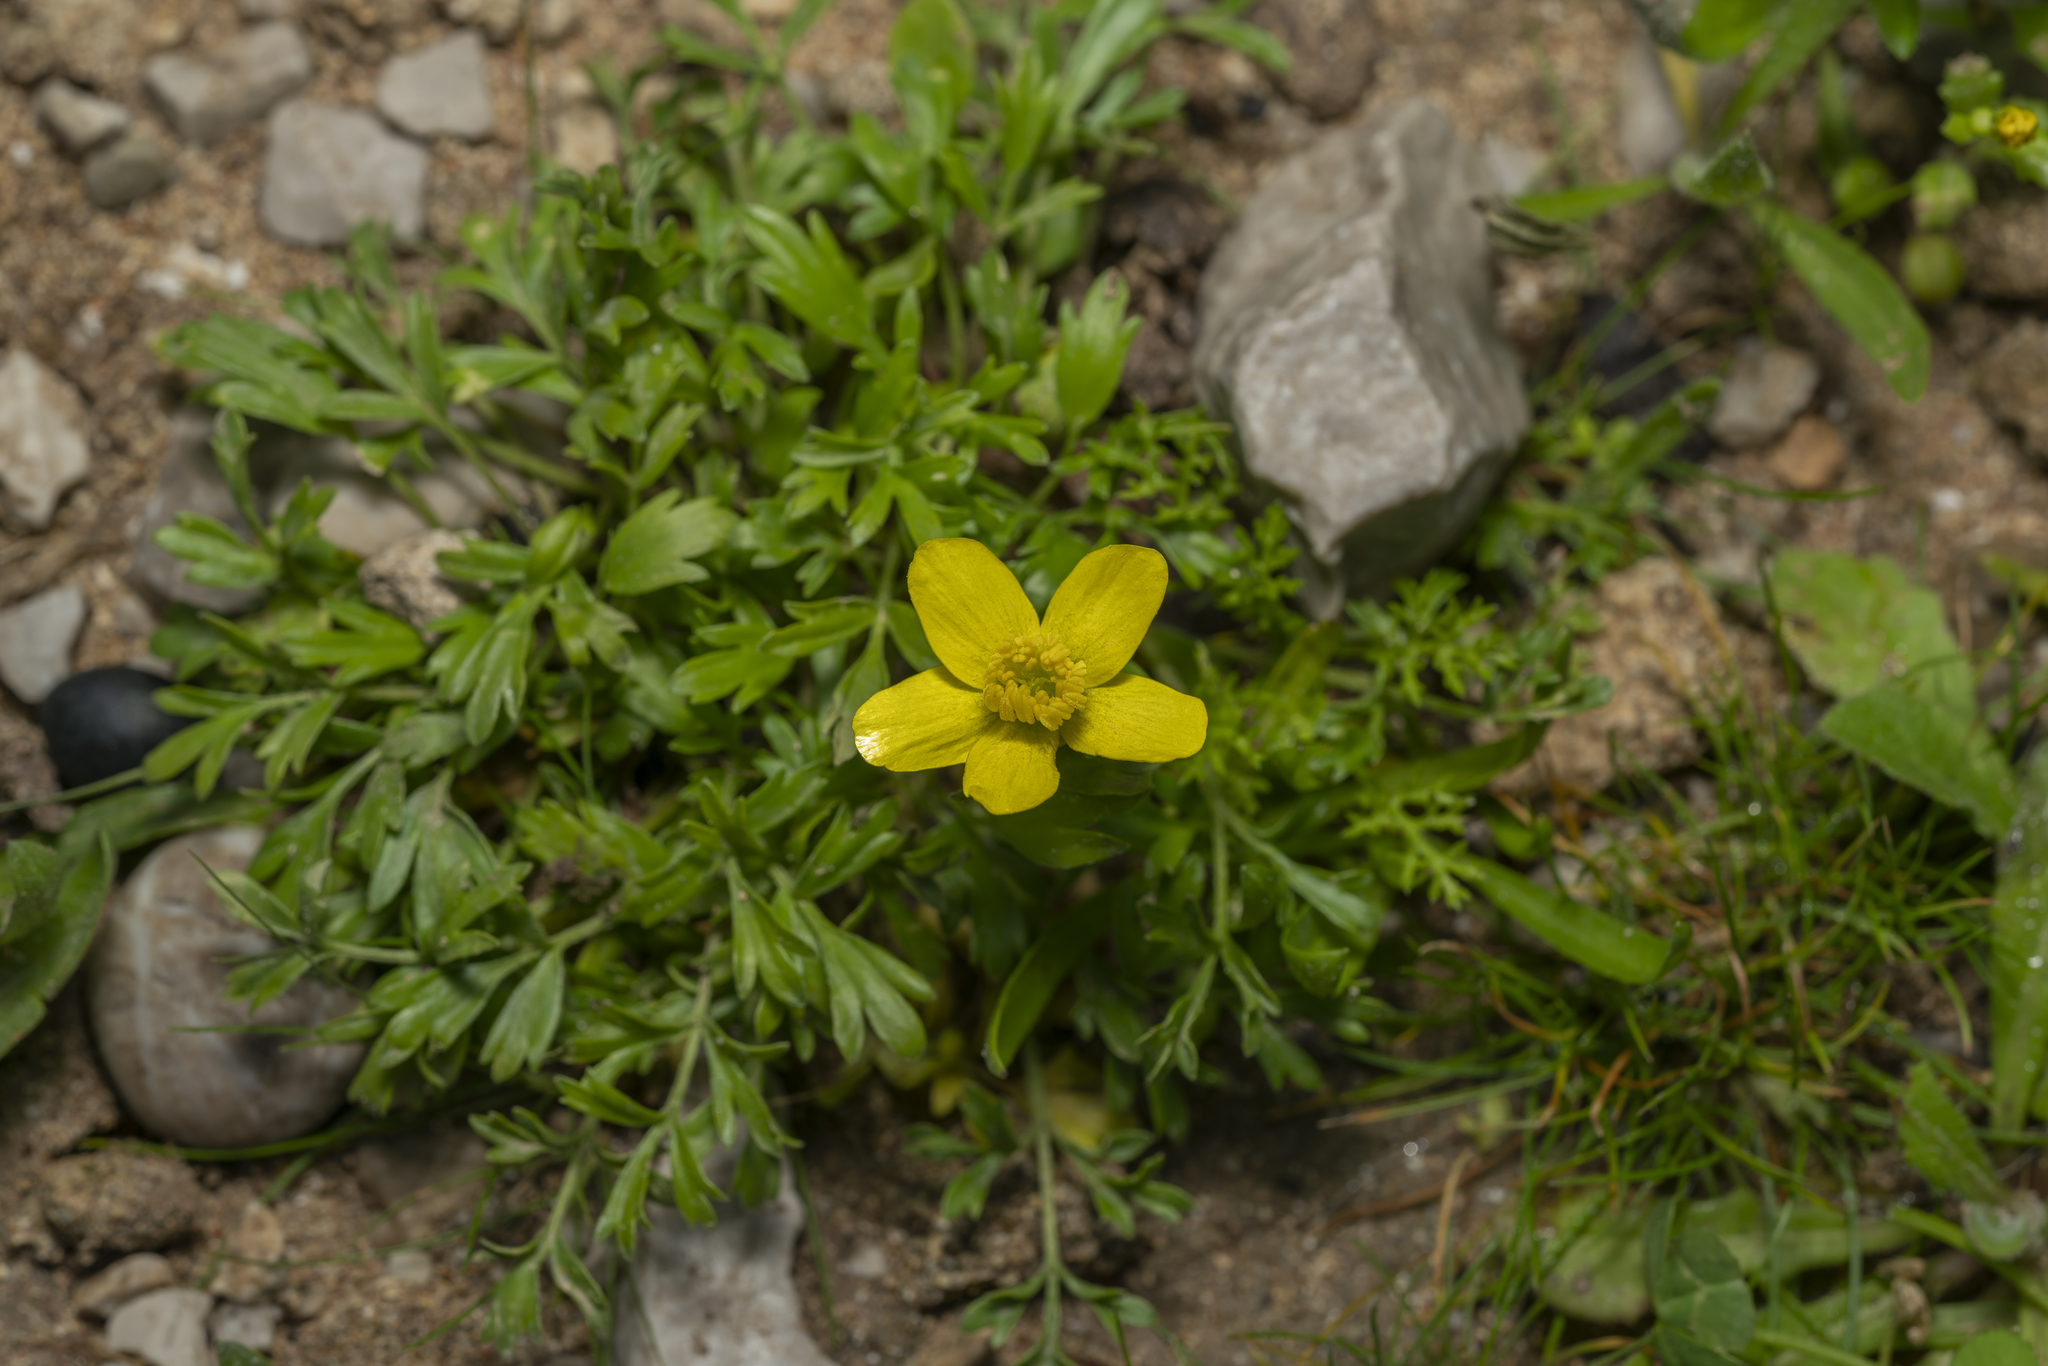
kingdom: Plantae
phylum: Tracheophyta
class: Magnoliopsida
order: Ranunculales
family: Ranunculaceae
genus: Ranunculus
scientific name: Ranunculus isthmicus
